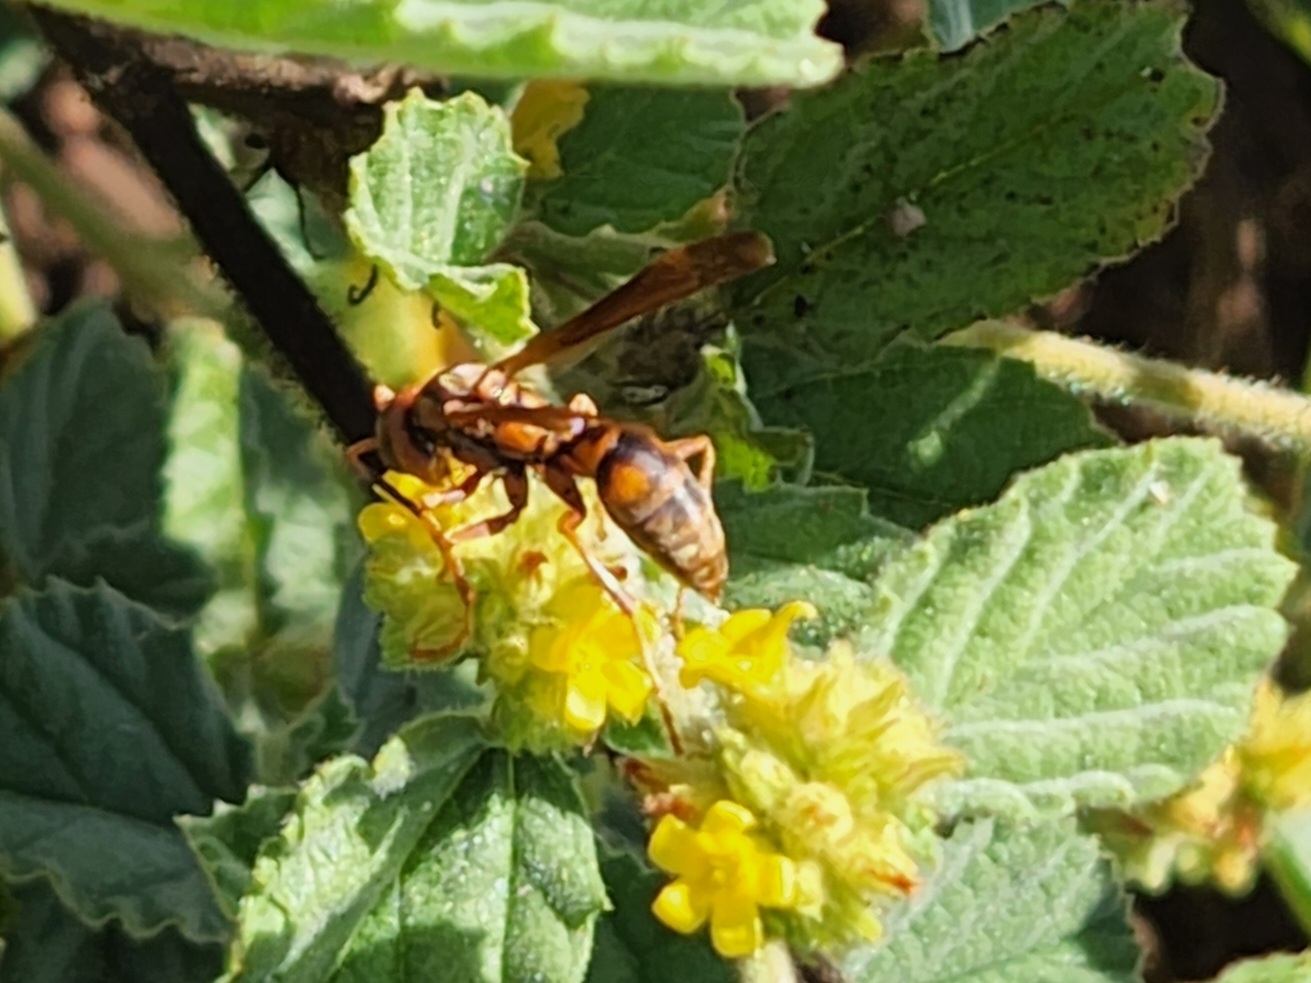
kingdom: Animalia
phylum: Arthropoda
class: Insecta
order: Hymenoptera
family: Eumenidae
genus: Polistes
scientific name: Polistes dorsalis
